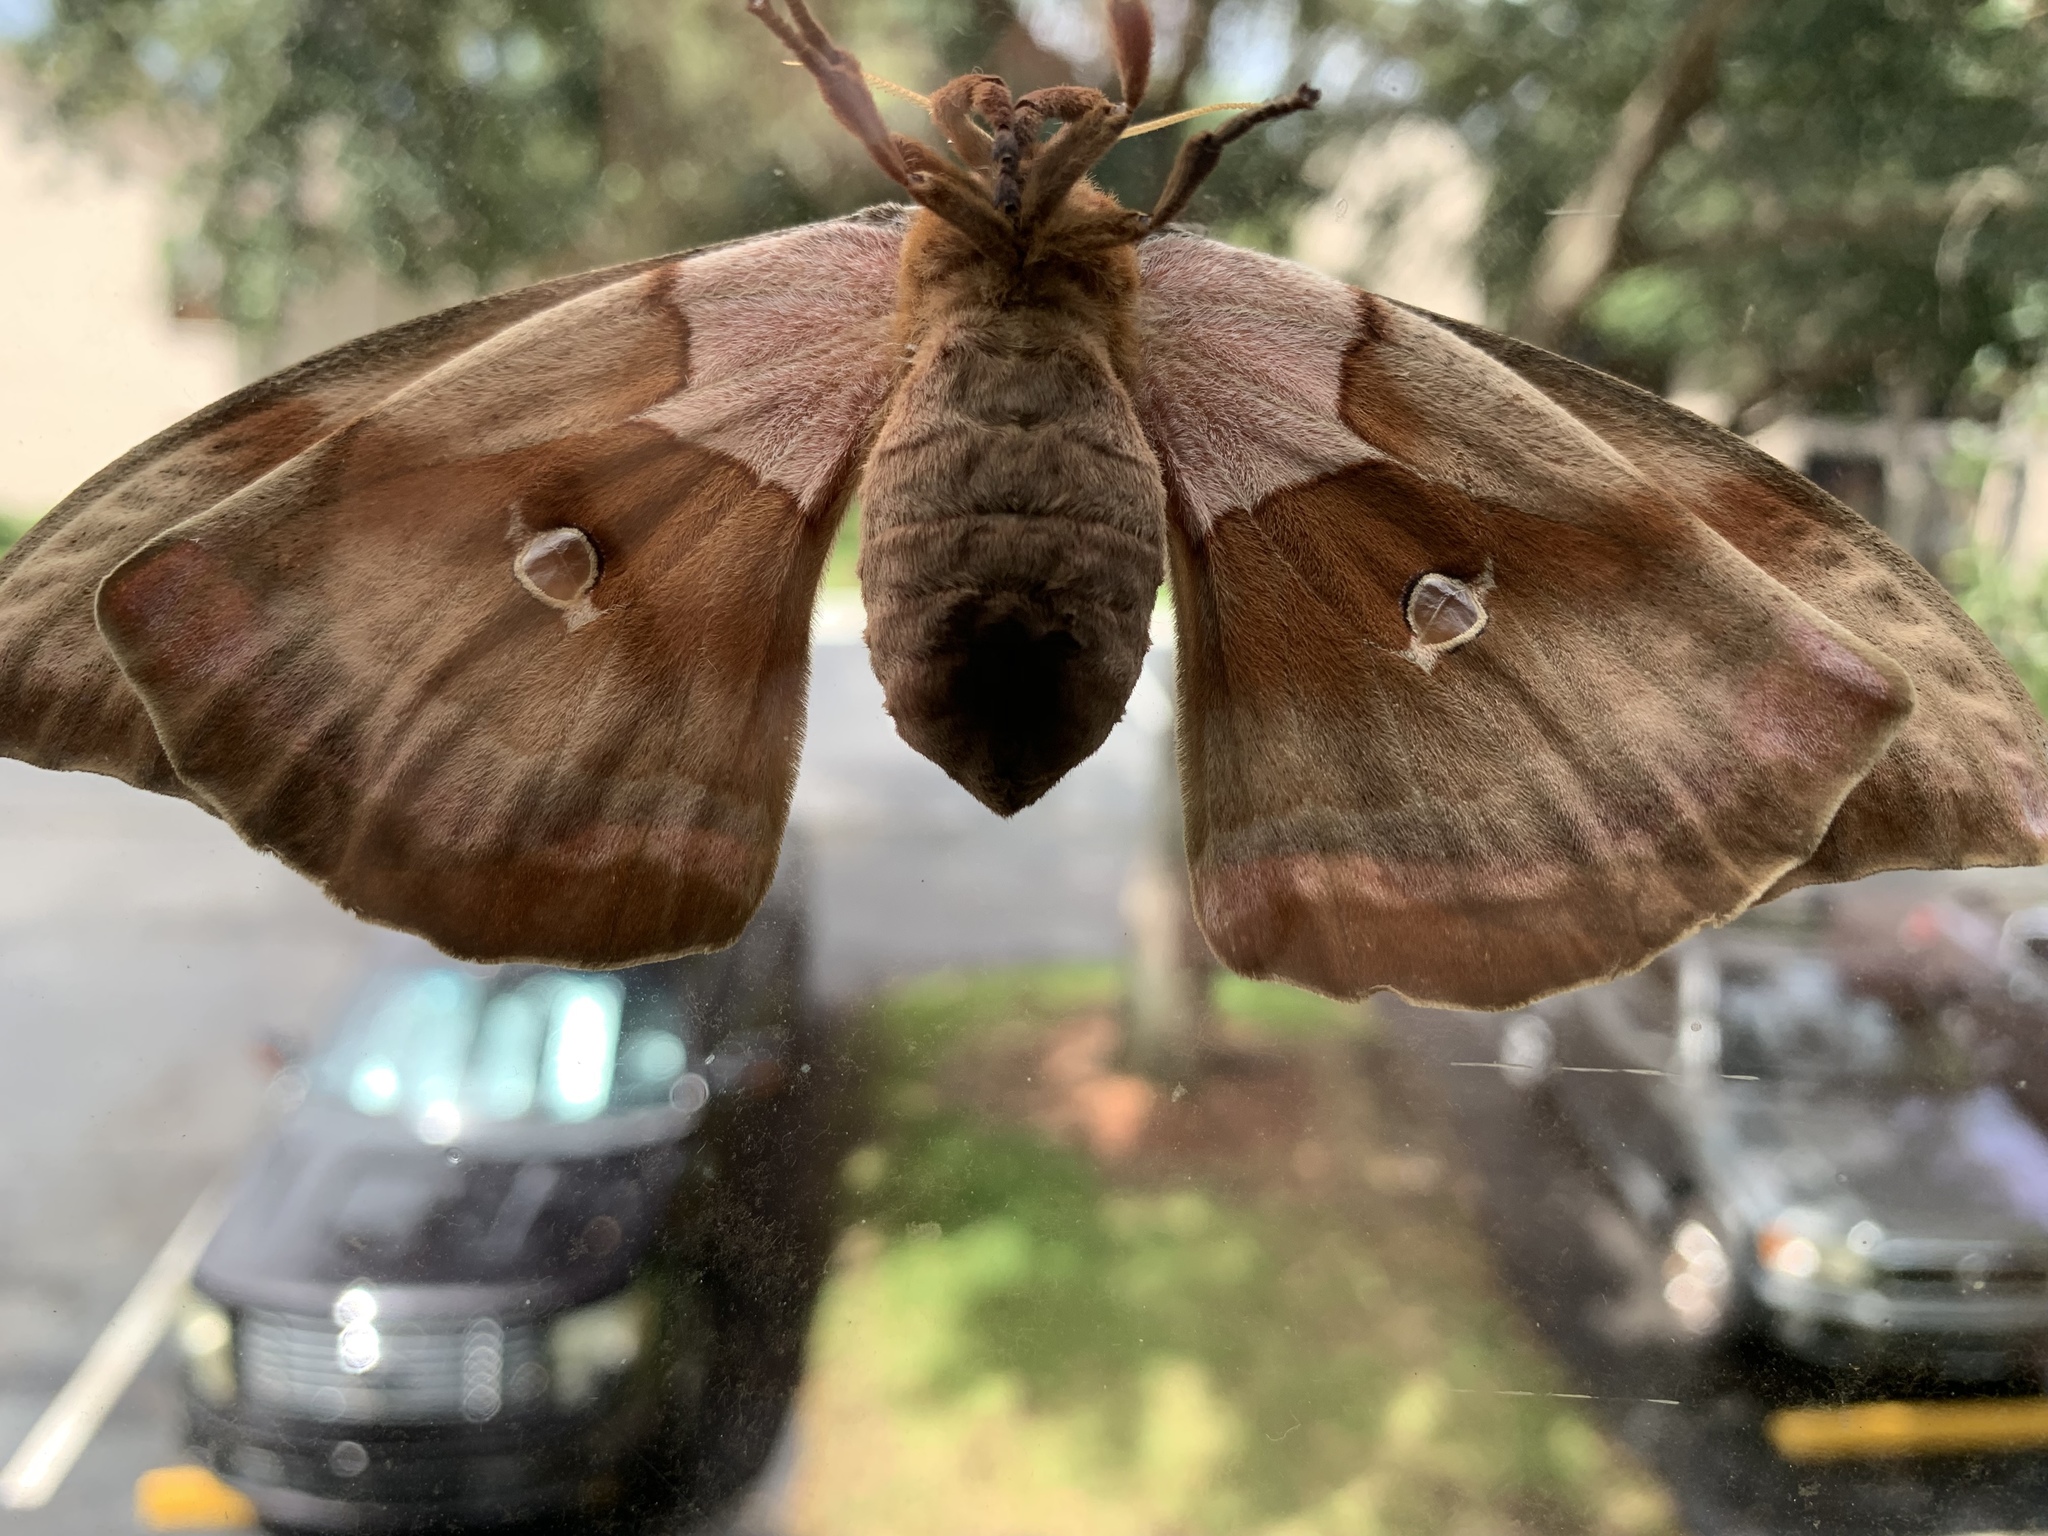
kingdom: Animalia
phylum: Arthropoda
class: Insecta
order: Lepidoptera
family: Saturniidae
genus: Antheraea
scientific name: Antheraea polyphemus
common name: Polyphemus moth
